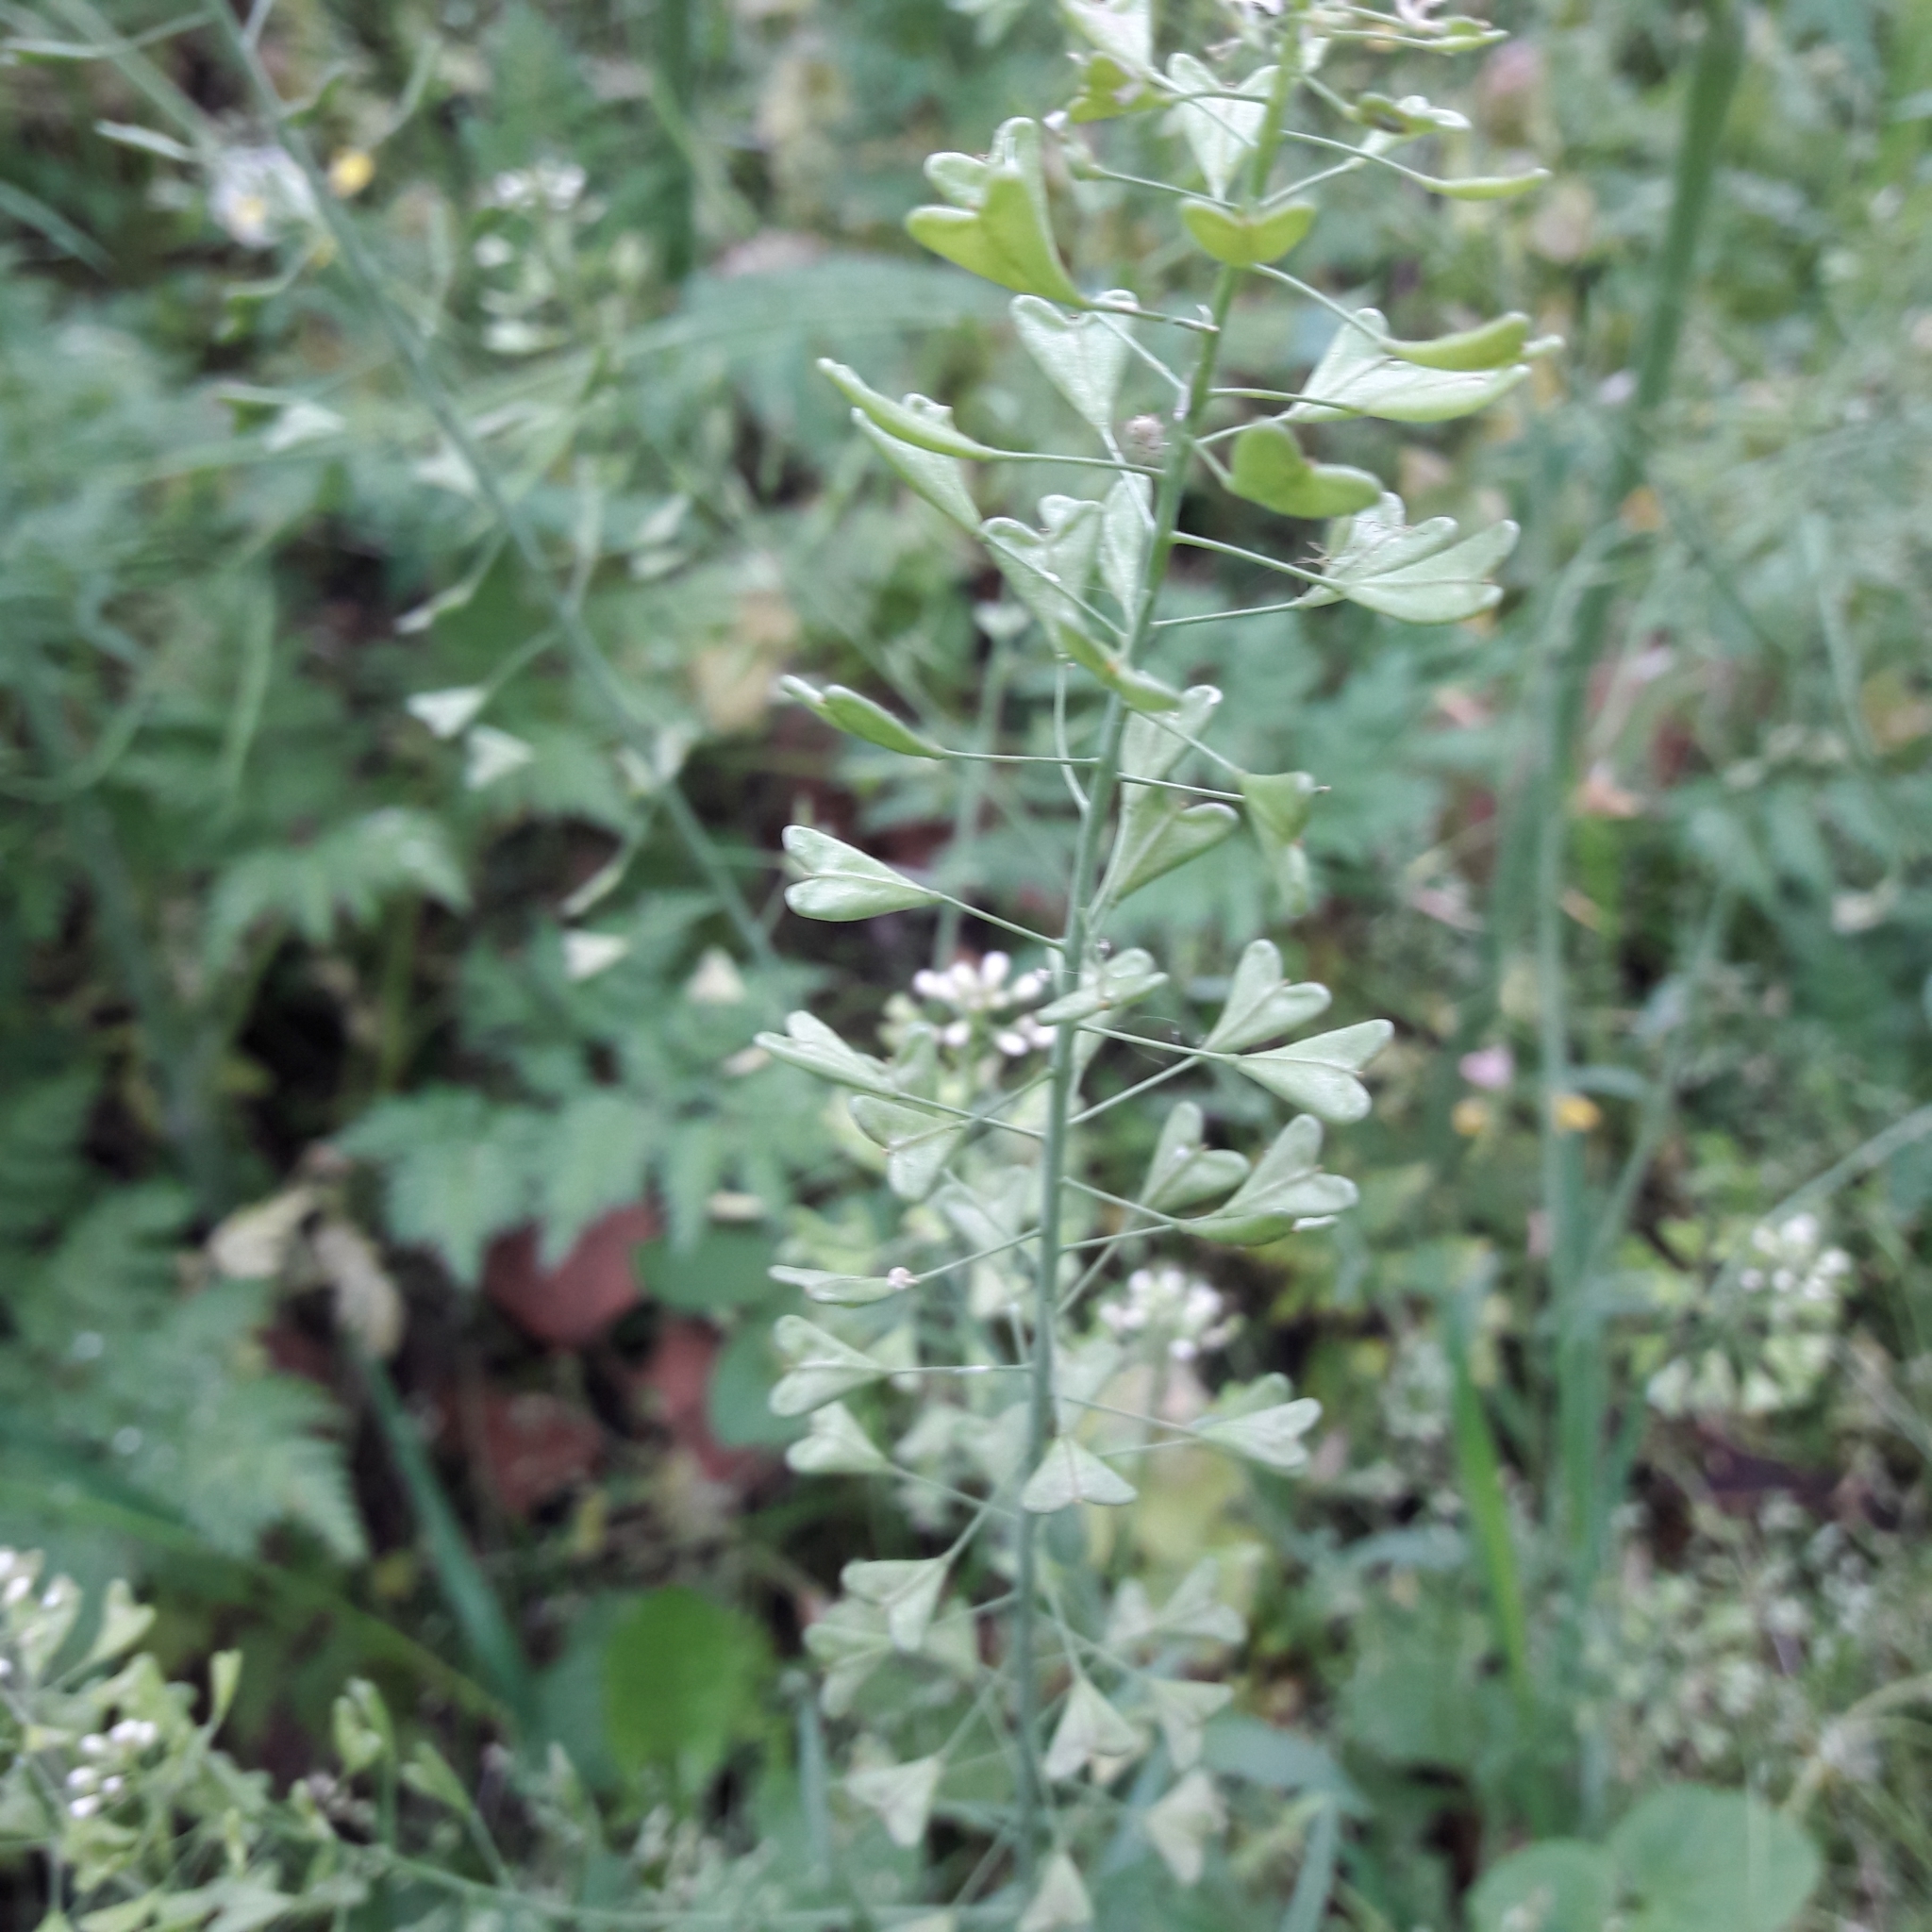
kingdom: Plantae
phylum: Tracheophyta
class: Magnoliopsida
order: Brassicales
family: Brassicaceae
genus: Capsella
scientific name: Capsella bursa-pastoris
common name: Shepherd's purse
